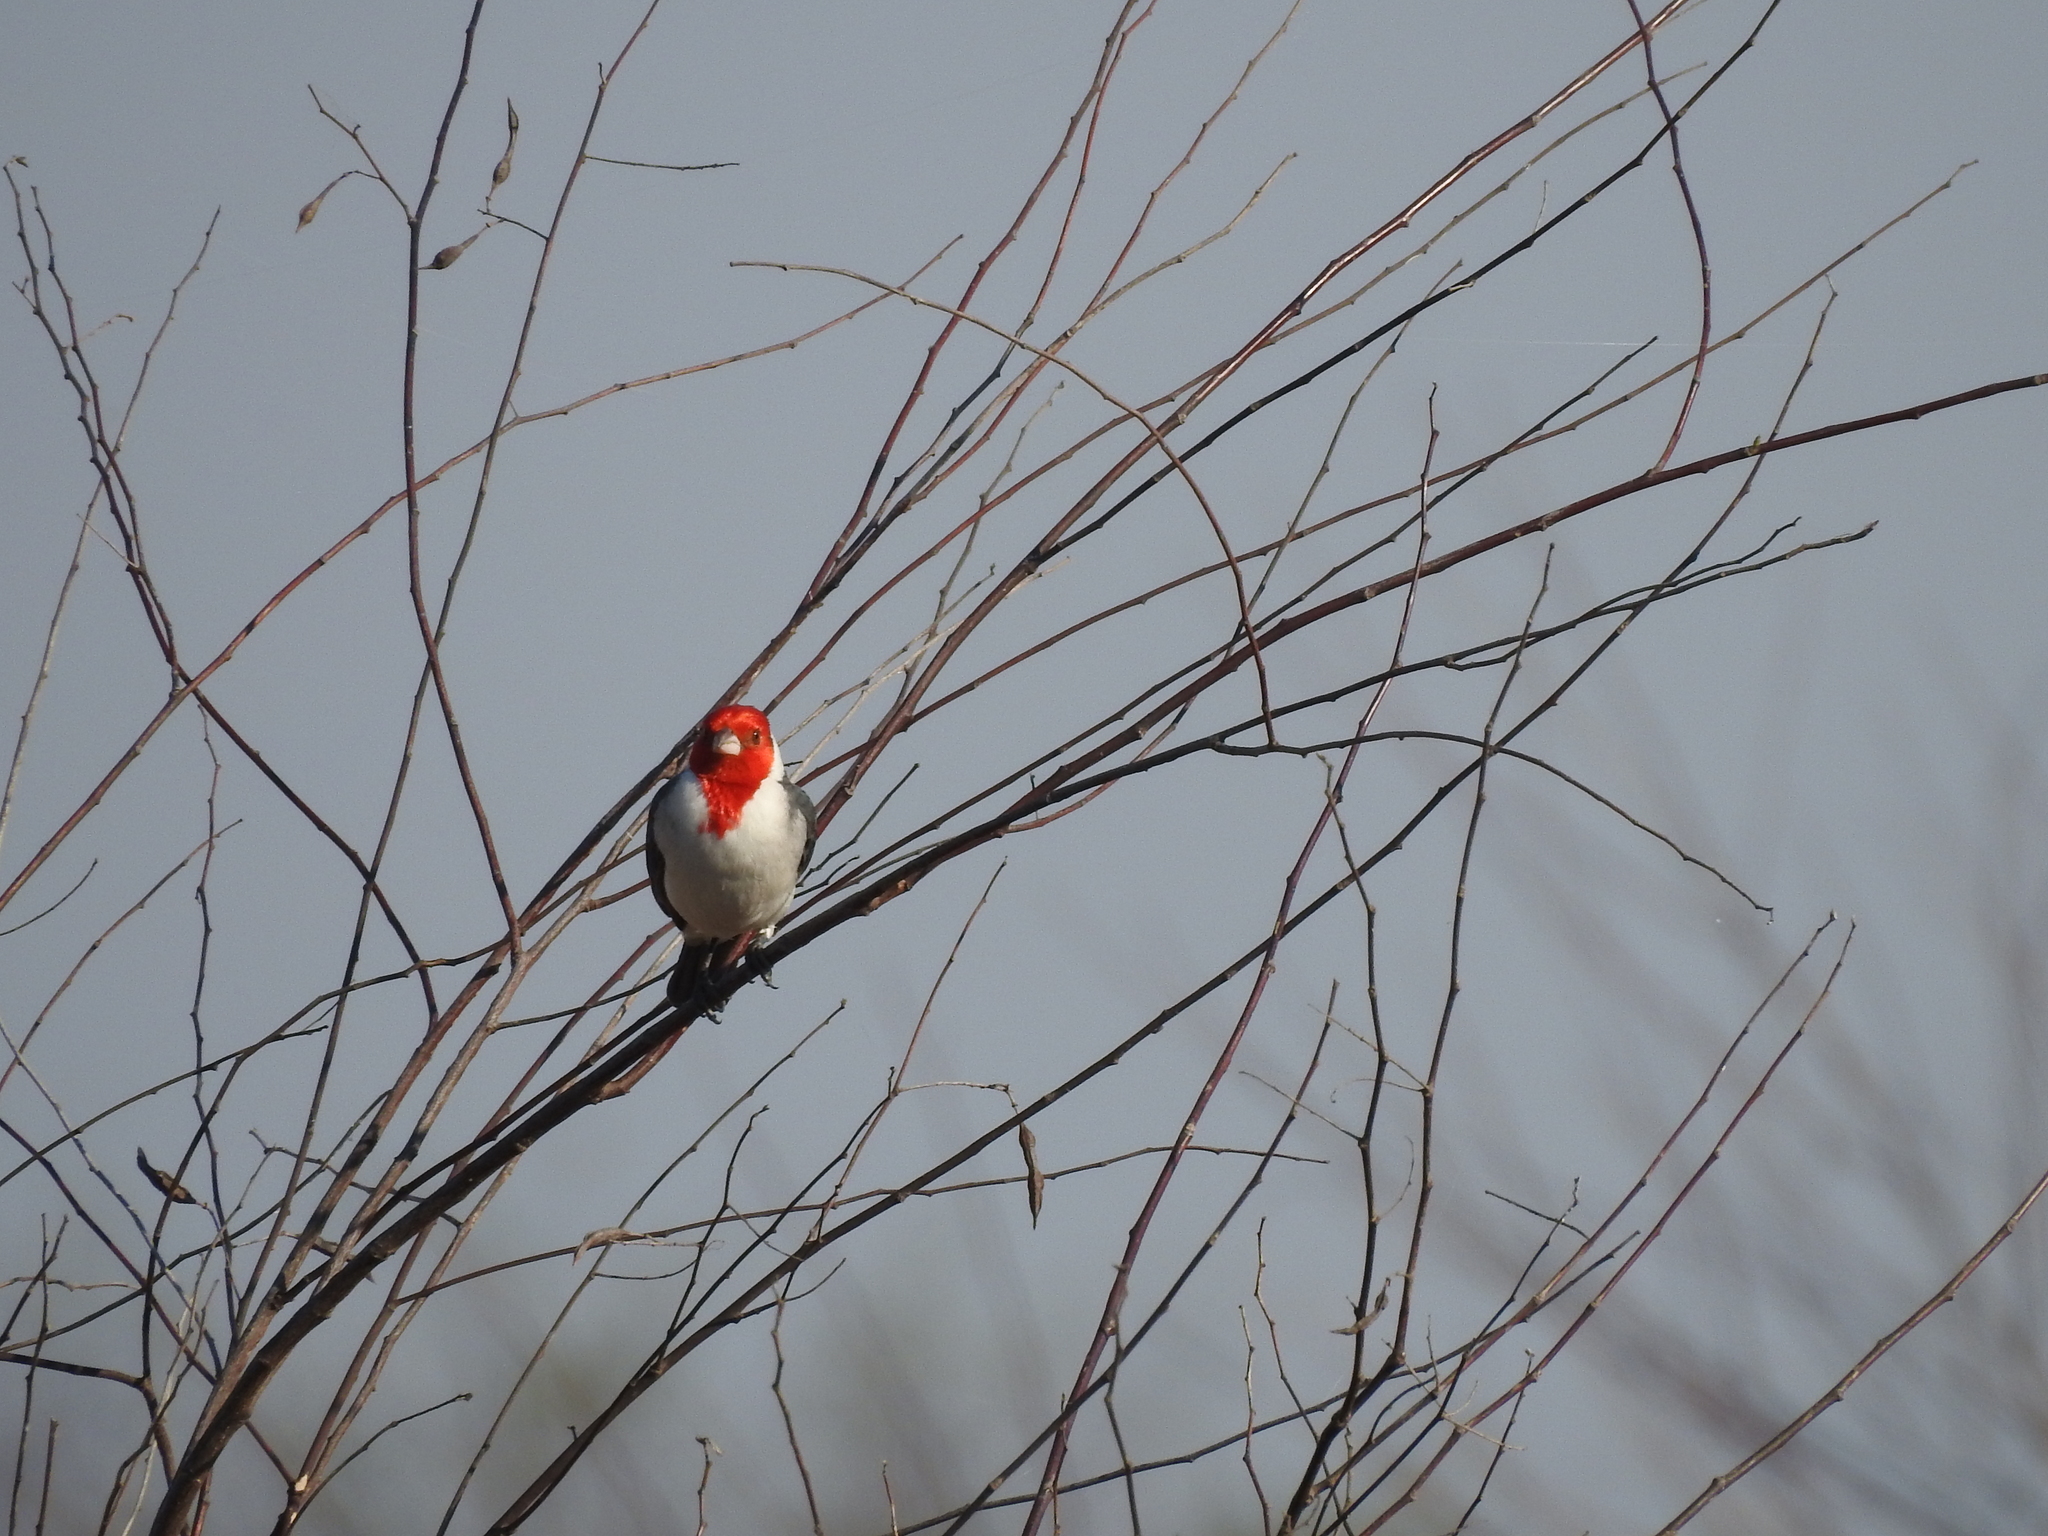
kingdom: Animalia
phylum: Chordata
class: Aves
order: Passeriformes
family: Thraupidae
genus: Paroaria
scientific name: Paroaria coronata
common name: Red-crested cardinal
